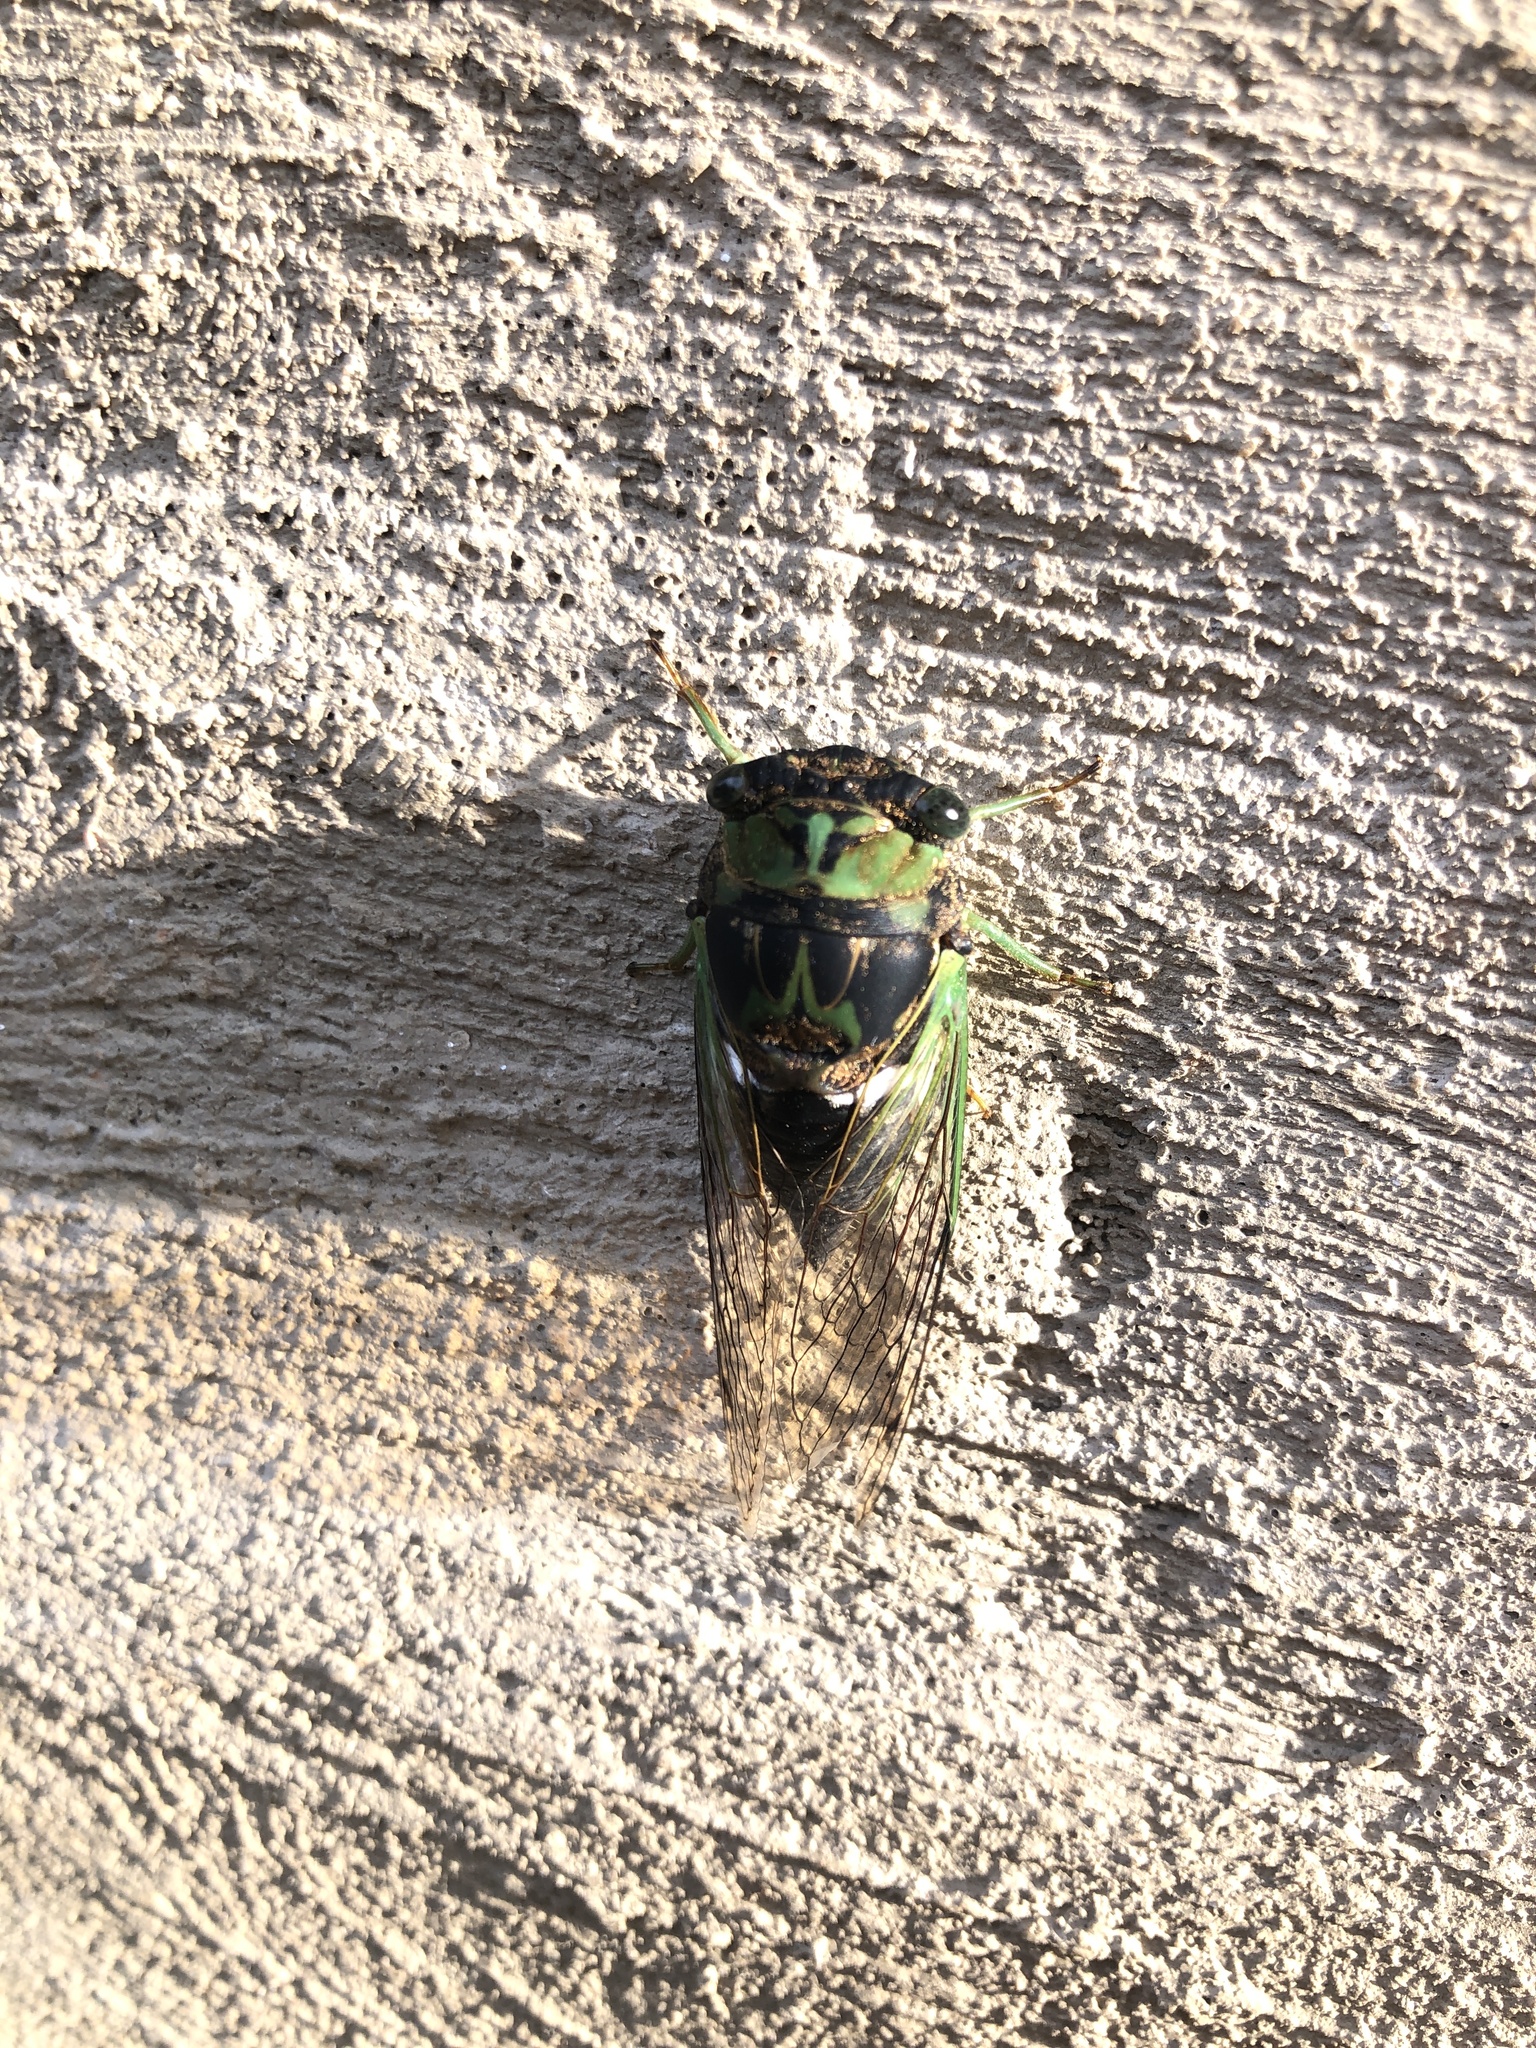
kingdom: Animalia
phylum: Arthropoda
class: Insecta
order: Hemiptera
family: Cicadidae
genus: Neotibicen
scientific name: Neotibicen tibicen
